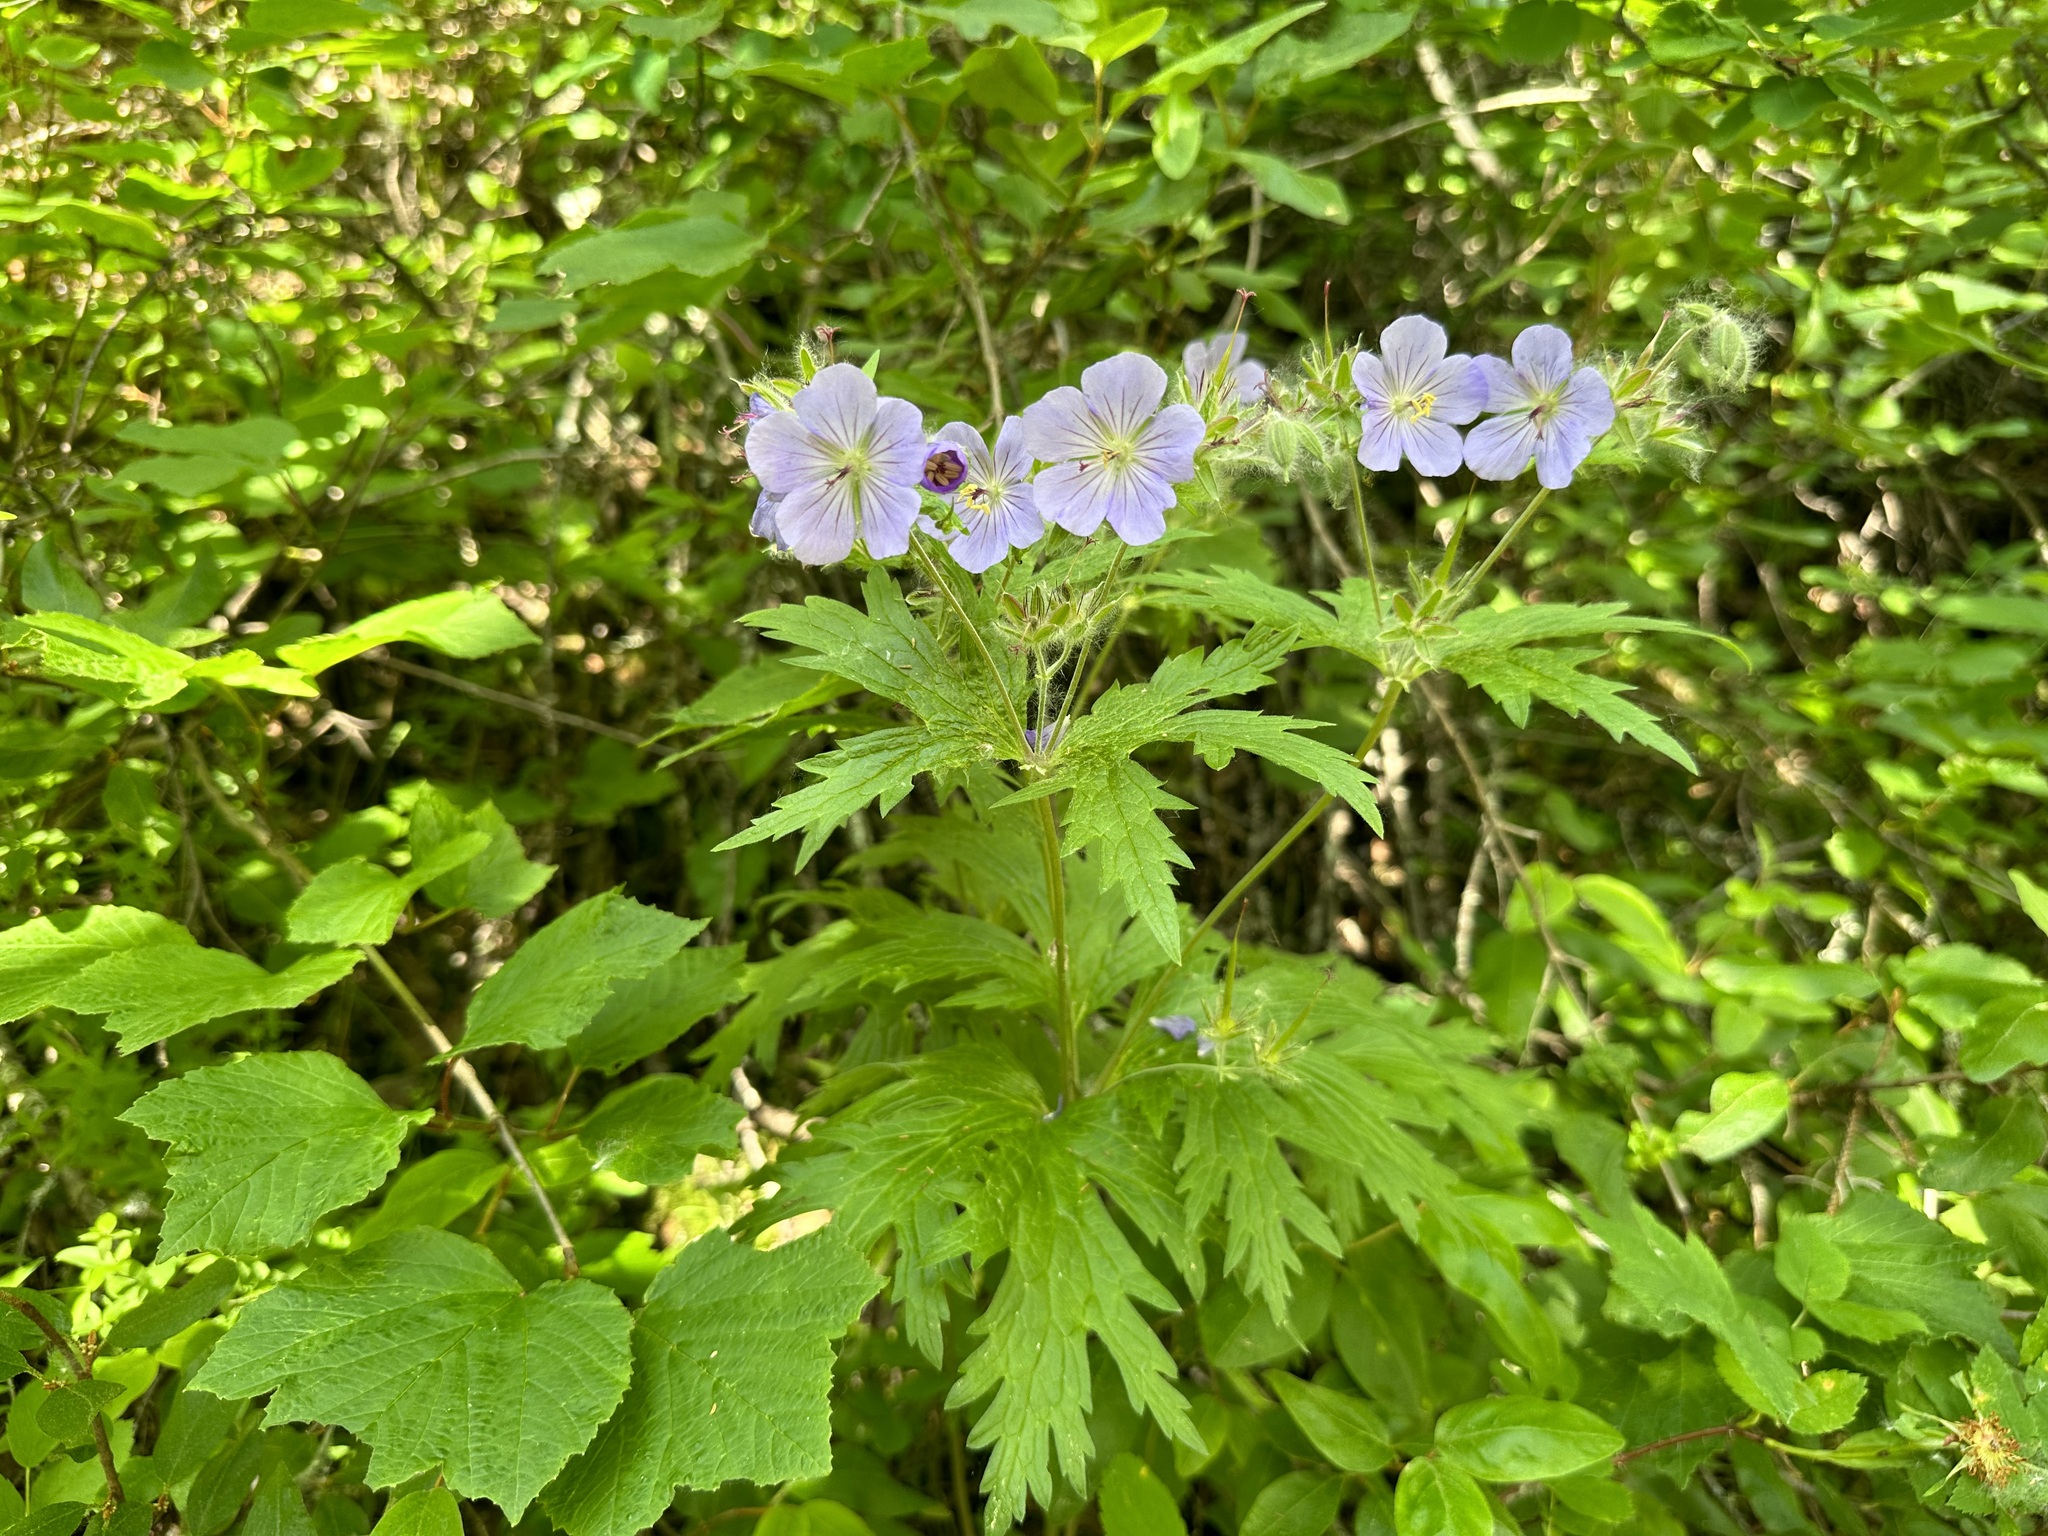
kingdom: Plantae
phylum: Tracheophyta
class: Magnoliopsida
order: Geraniales
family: Geraniaceae
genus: Geranium
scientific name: Geranium erianthum
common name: Northern crane's-bill
